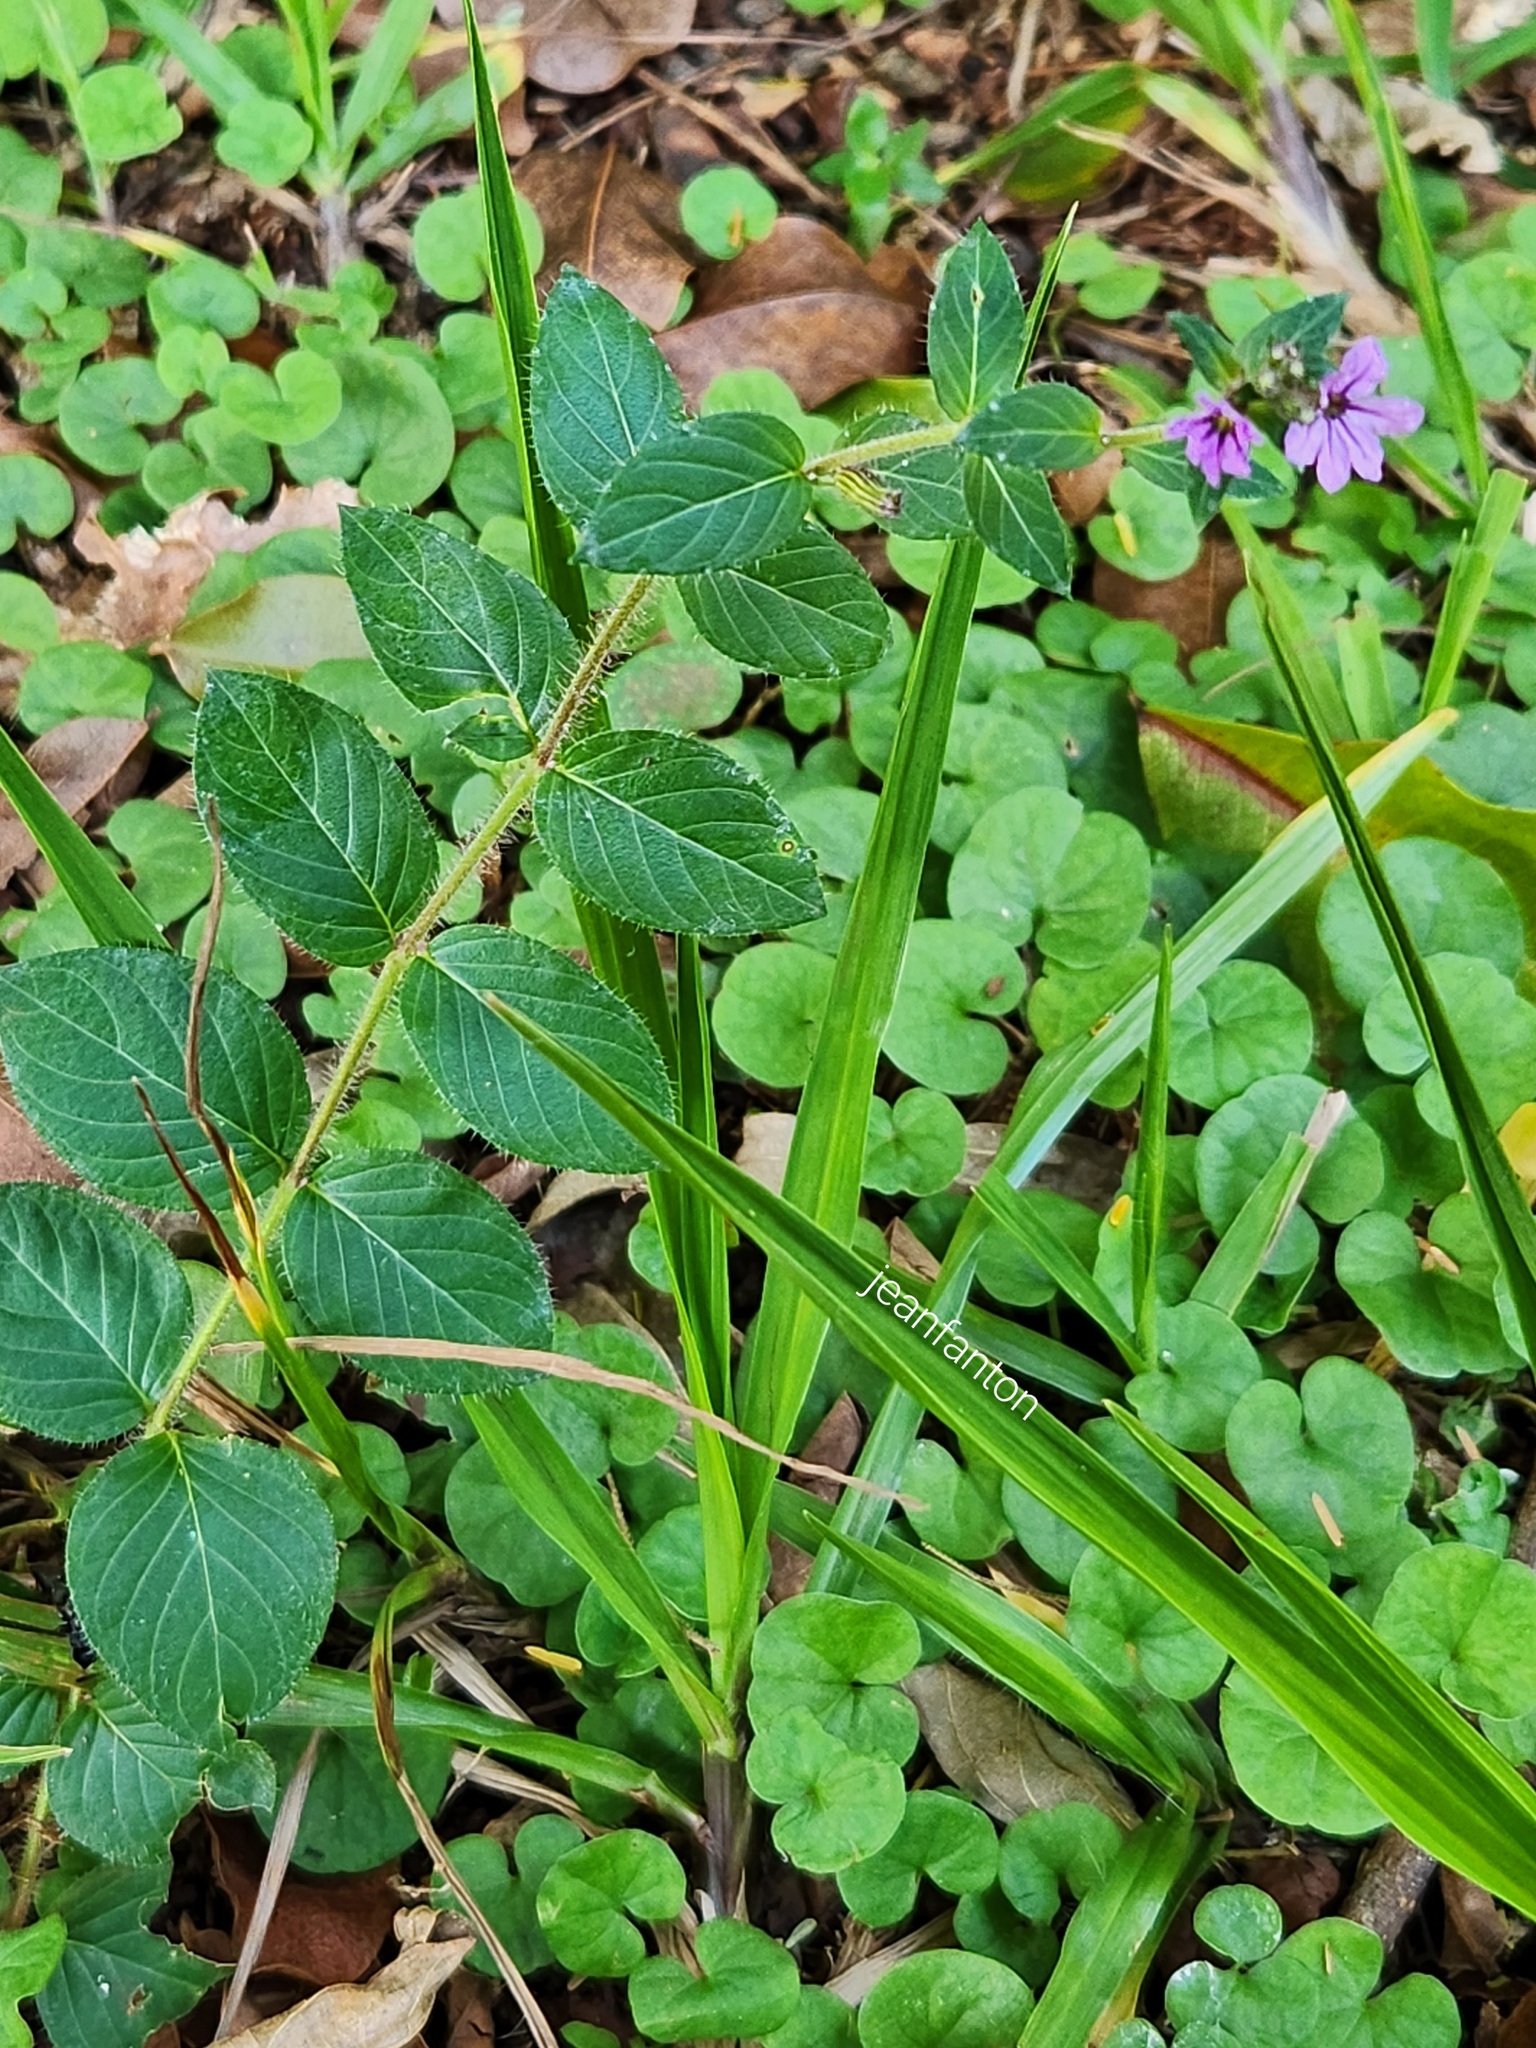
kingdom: Plantae
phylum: Tracheophyta
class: Magnoliopsida
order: Myrtales
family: Lythraceae
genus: Cuphea
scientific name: Cuphea calophylla
